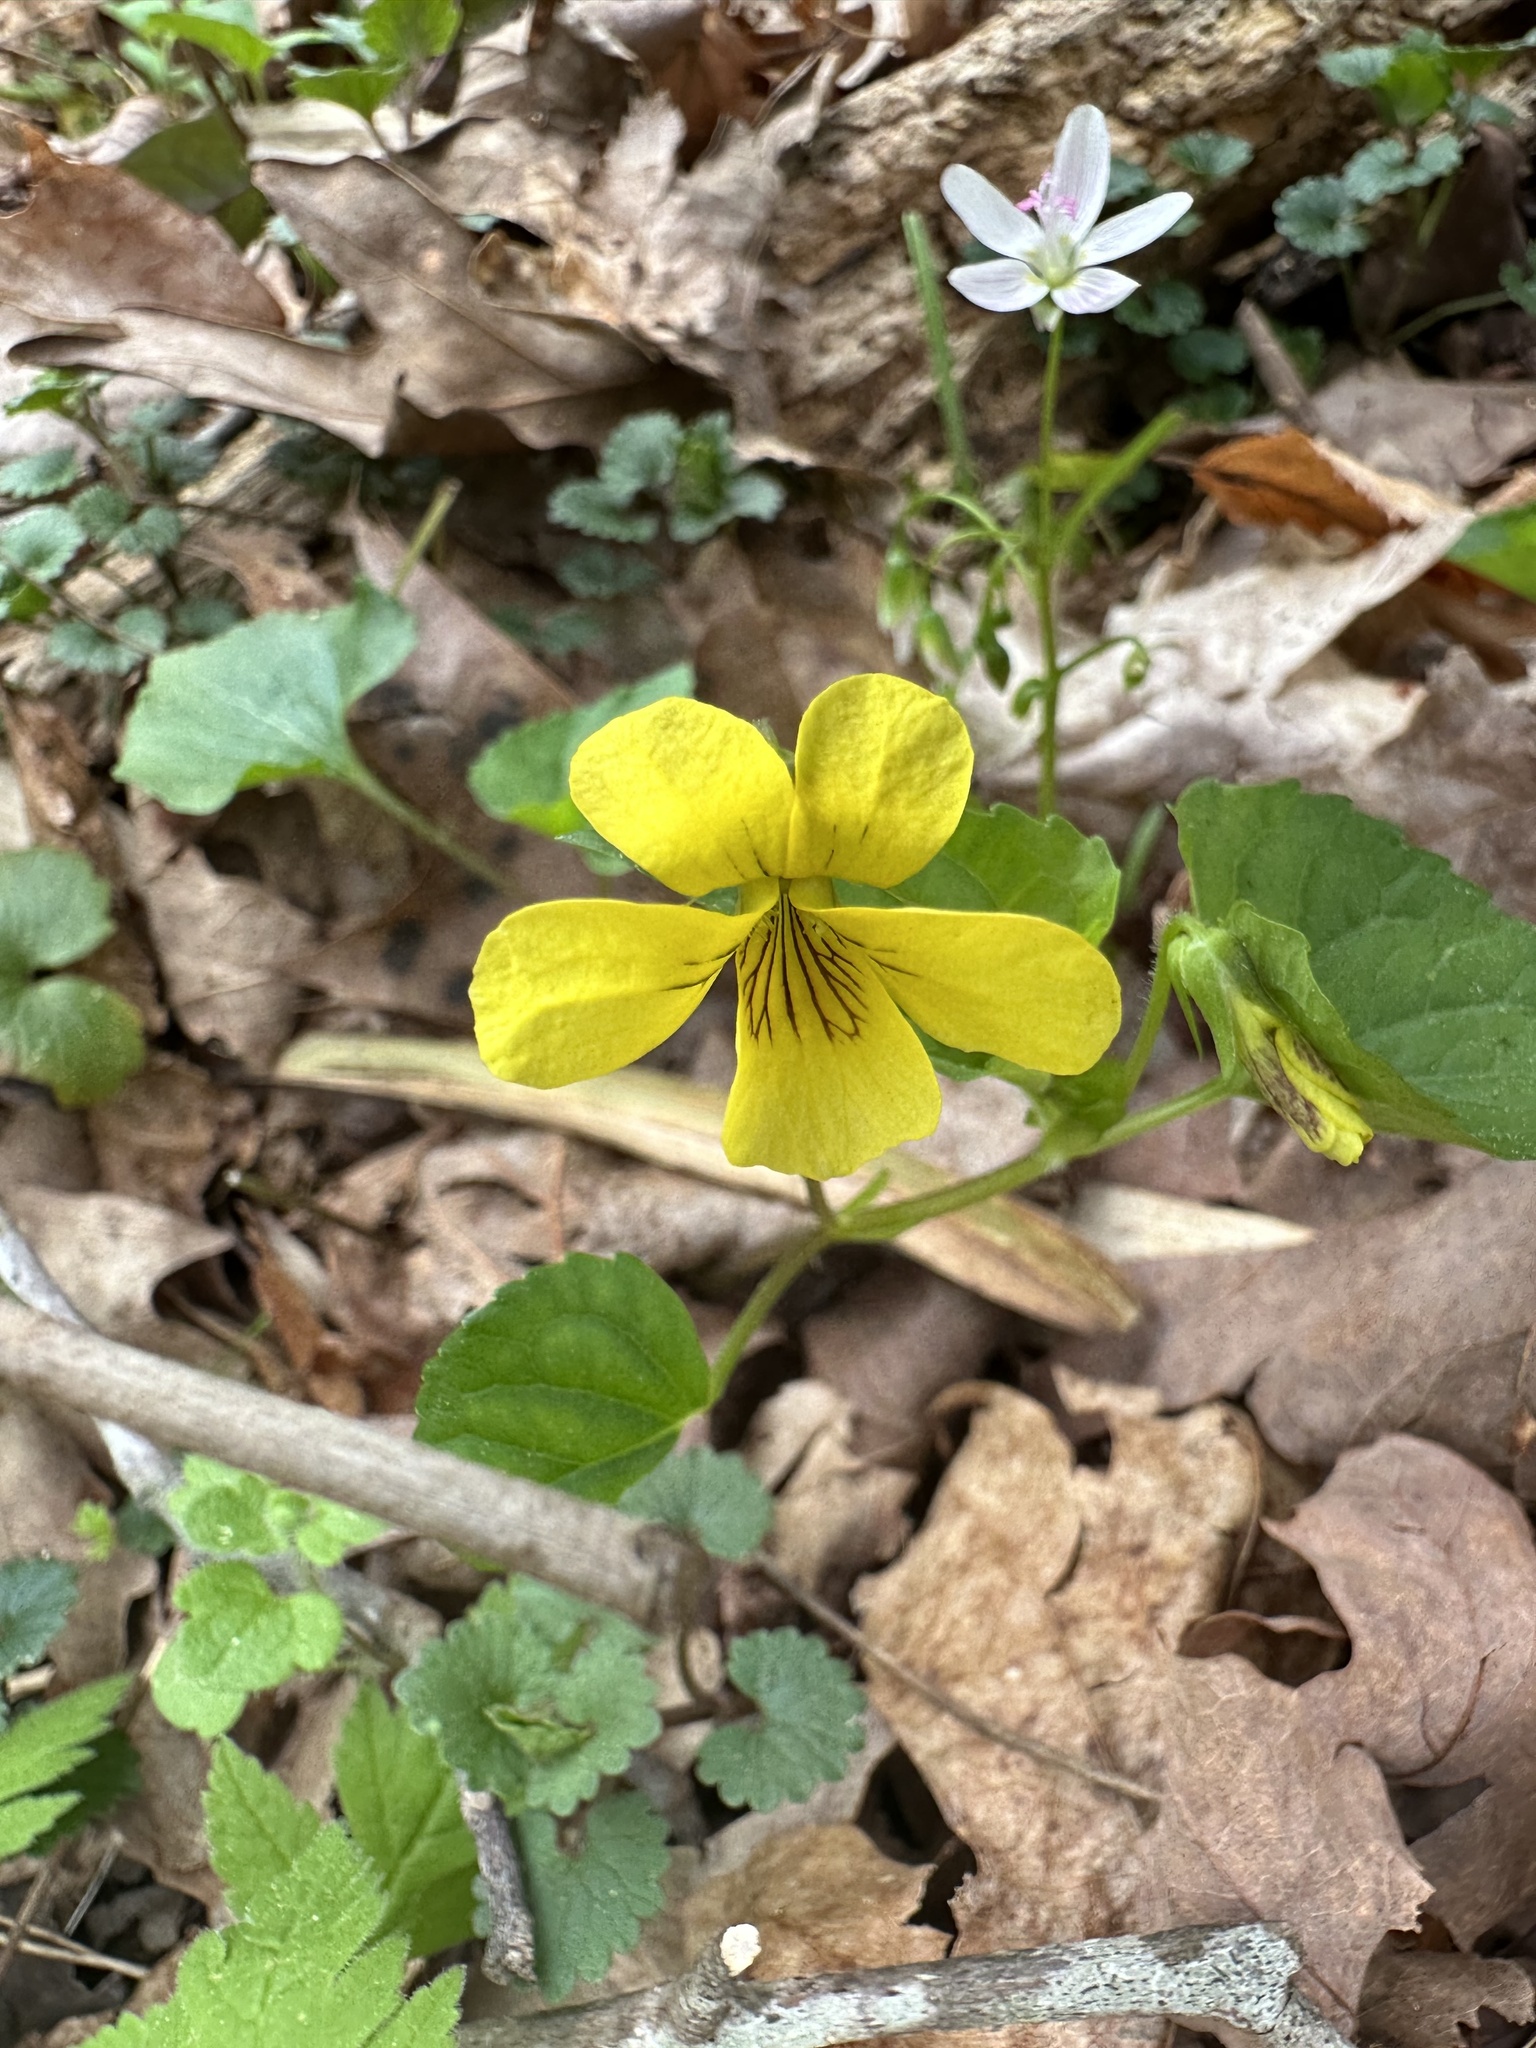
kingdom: Plantae
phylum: Tracheophyta
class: Magnoliopsida
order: Malpighiales
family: Violaceae
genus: Viola
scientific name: Viola eriocarpa
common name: Smooth yellow violet
